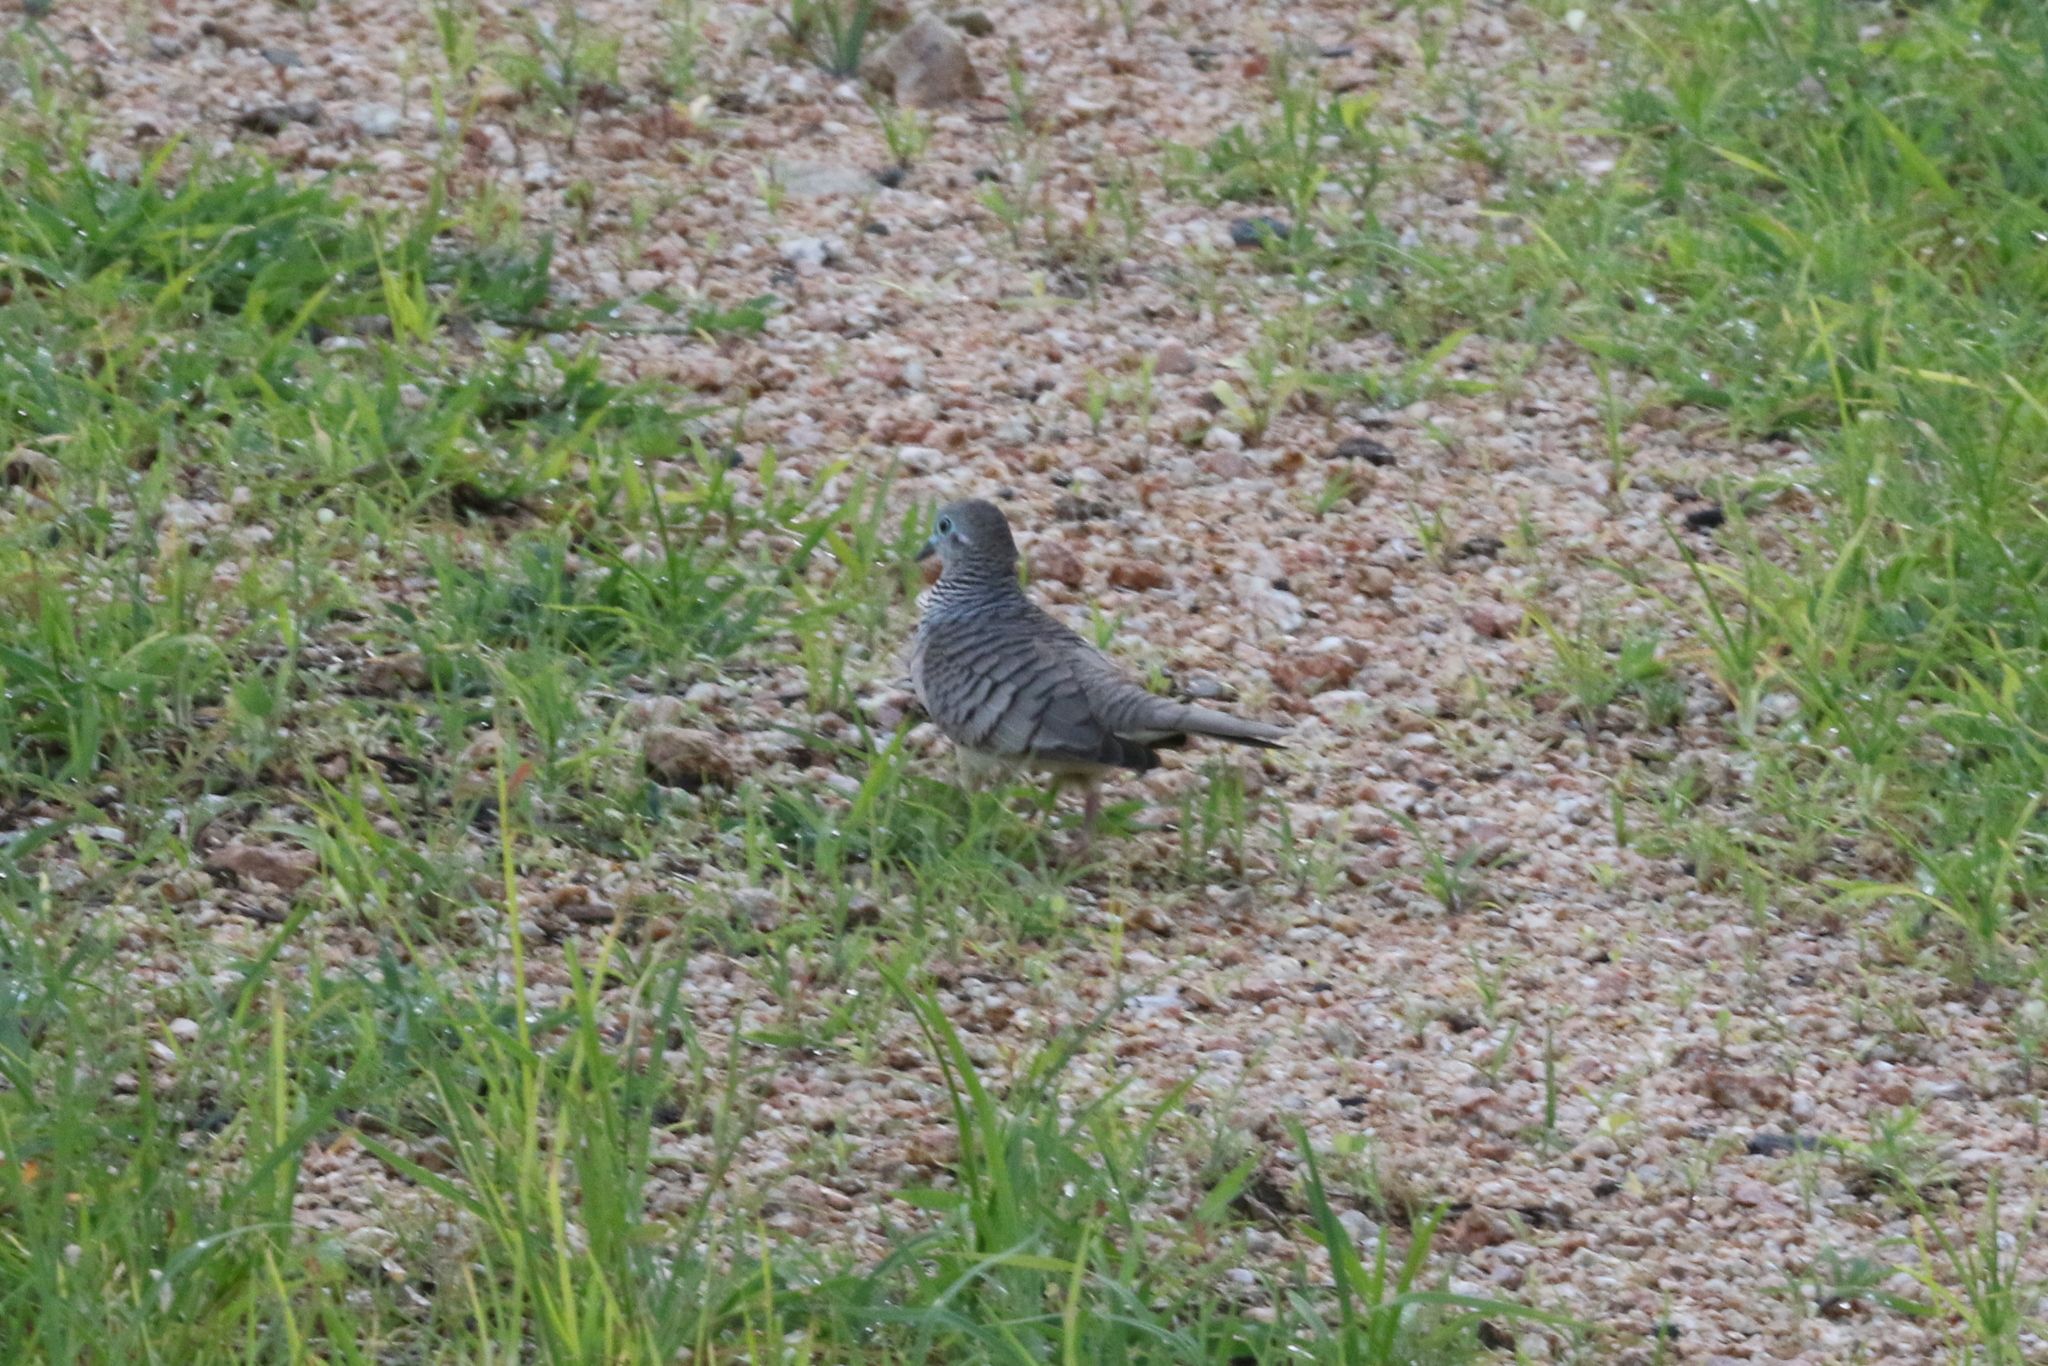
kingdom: Animalia
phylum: Chordata
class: Aves
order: Columbiformes
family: Columbidae
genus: Geopelia
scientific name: Geopelia placida
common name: Peaceful dove
